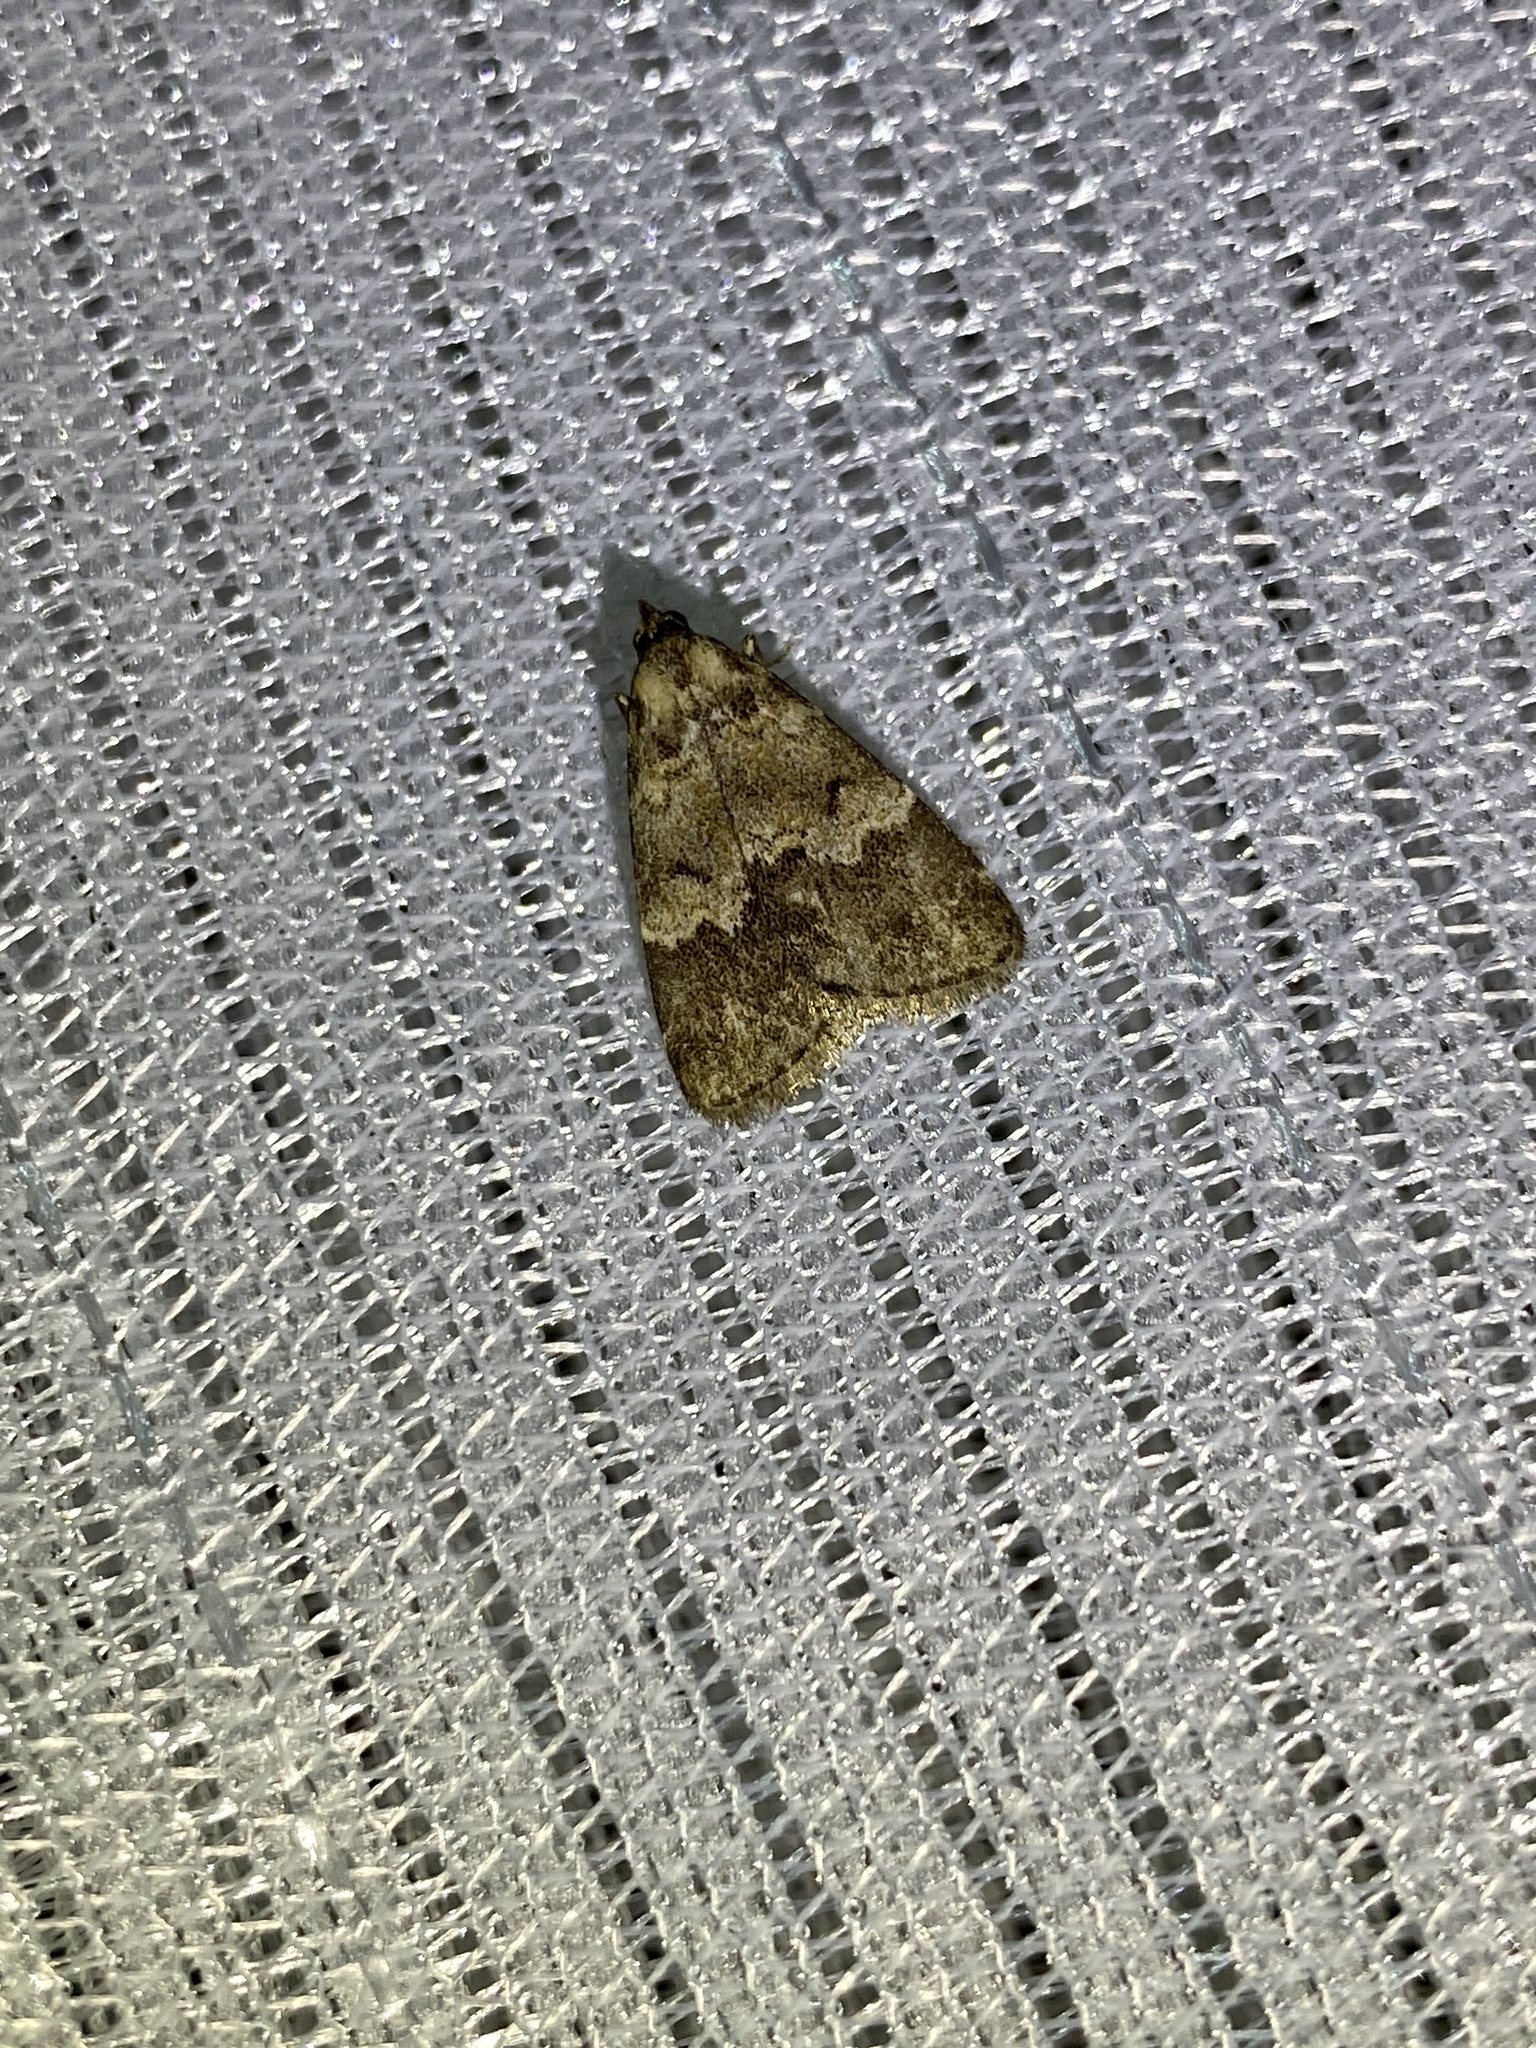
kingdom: Animalia
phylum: Arthropoda
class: Insecta
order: Lepidoptera
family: Erebidae
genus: Hydrillodes
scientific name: Hydrillodes morosa
